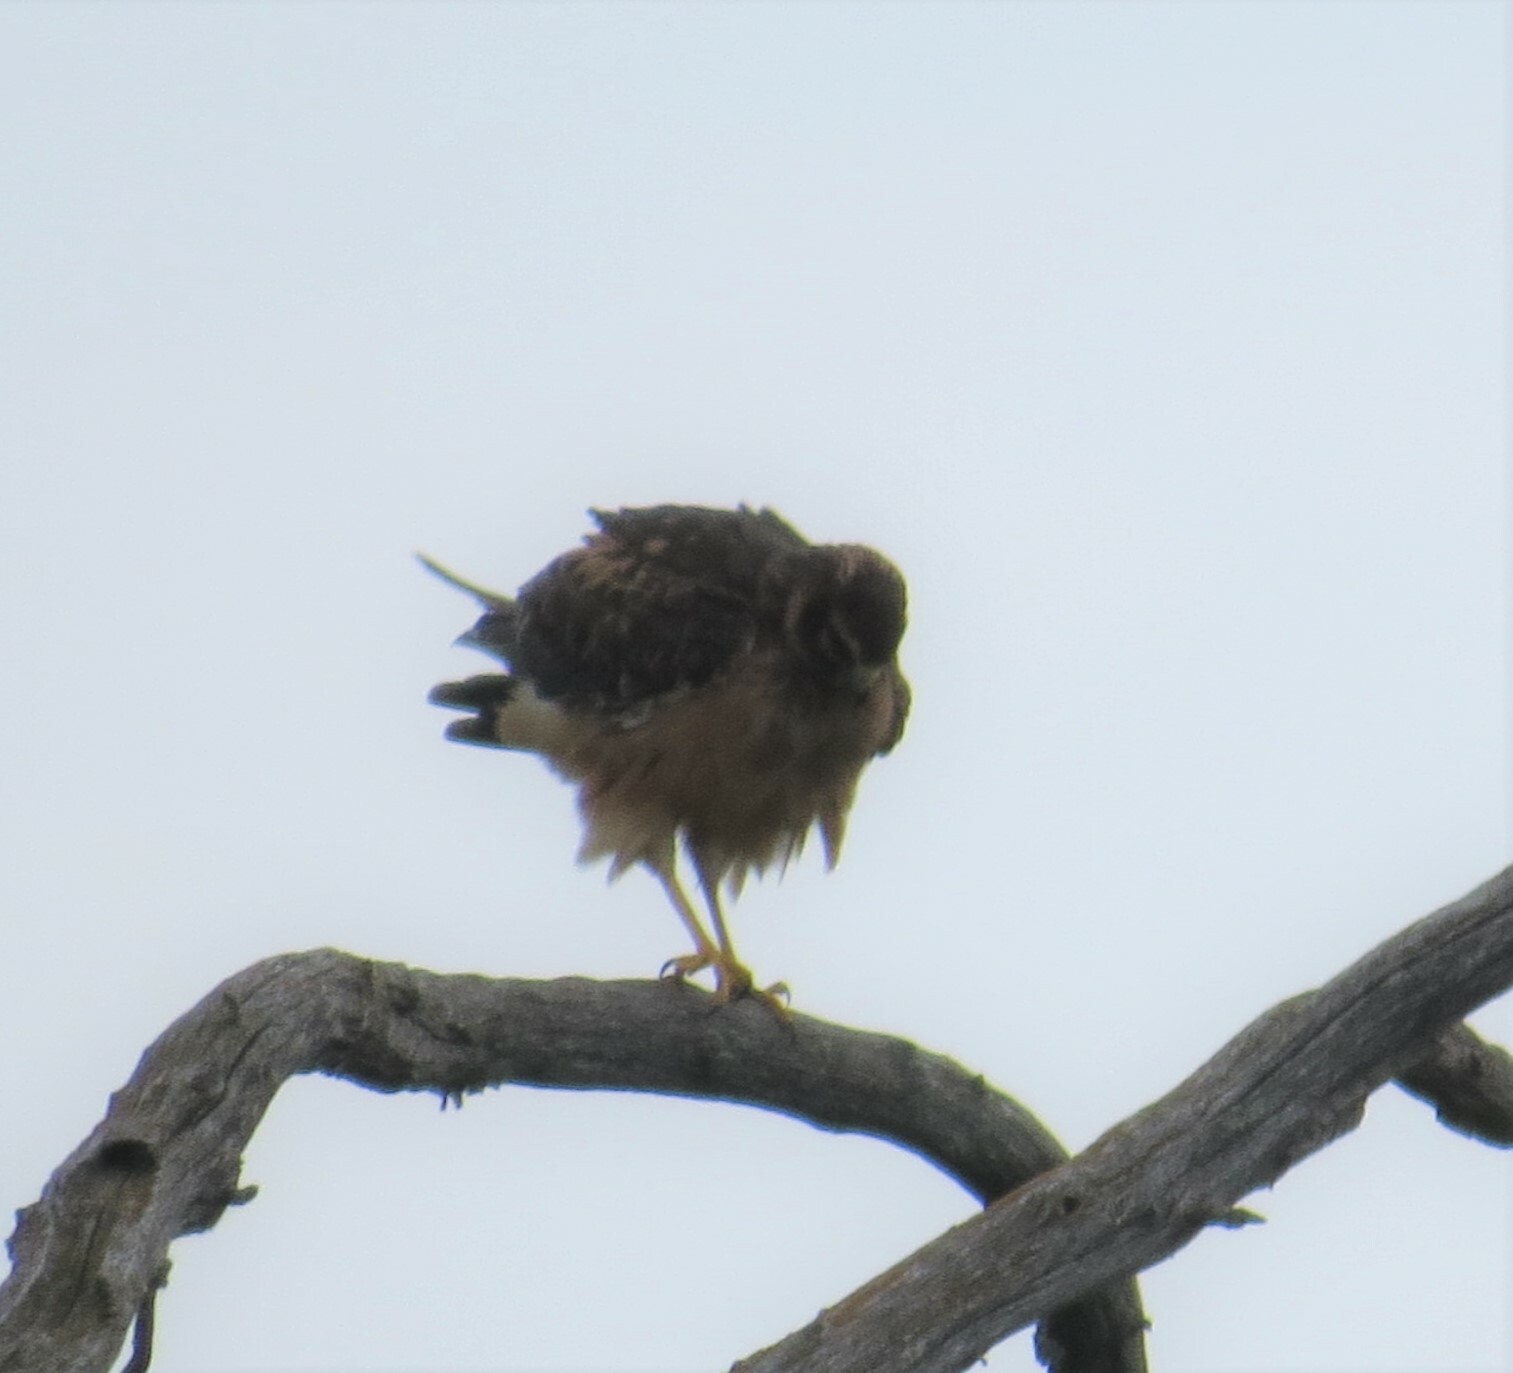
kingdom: Animalia
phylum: Chordata
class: Aves
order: Accipitriformes
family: Accipitridae
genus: Circus
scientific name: Circus cyaneus
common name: Hen harrier
